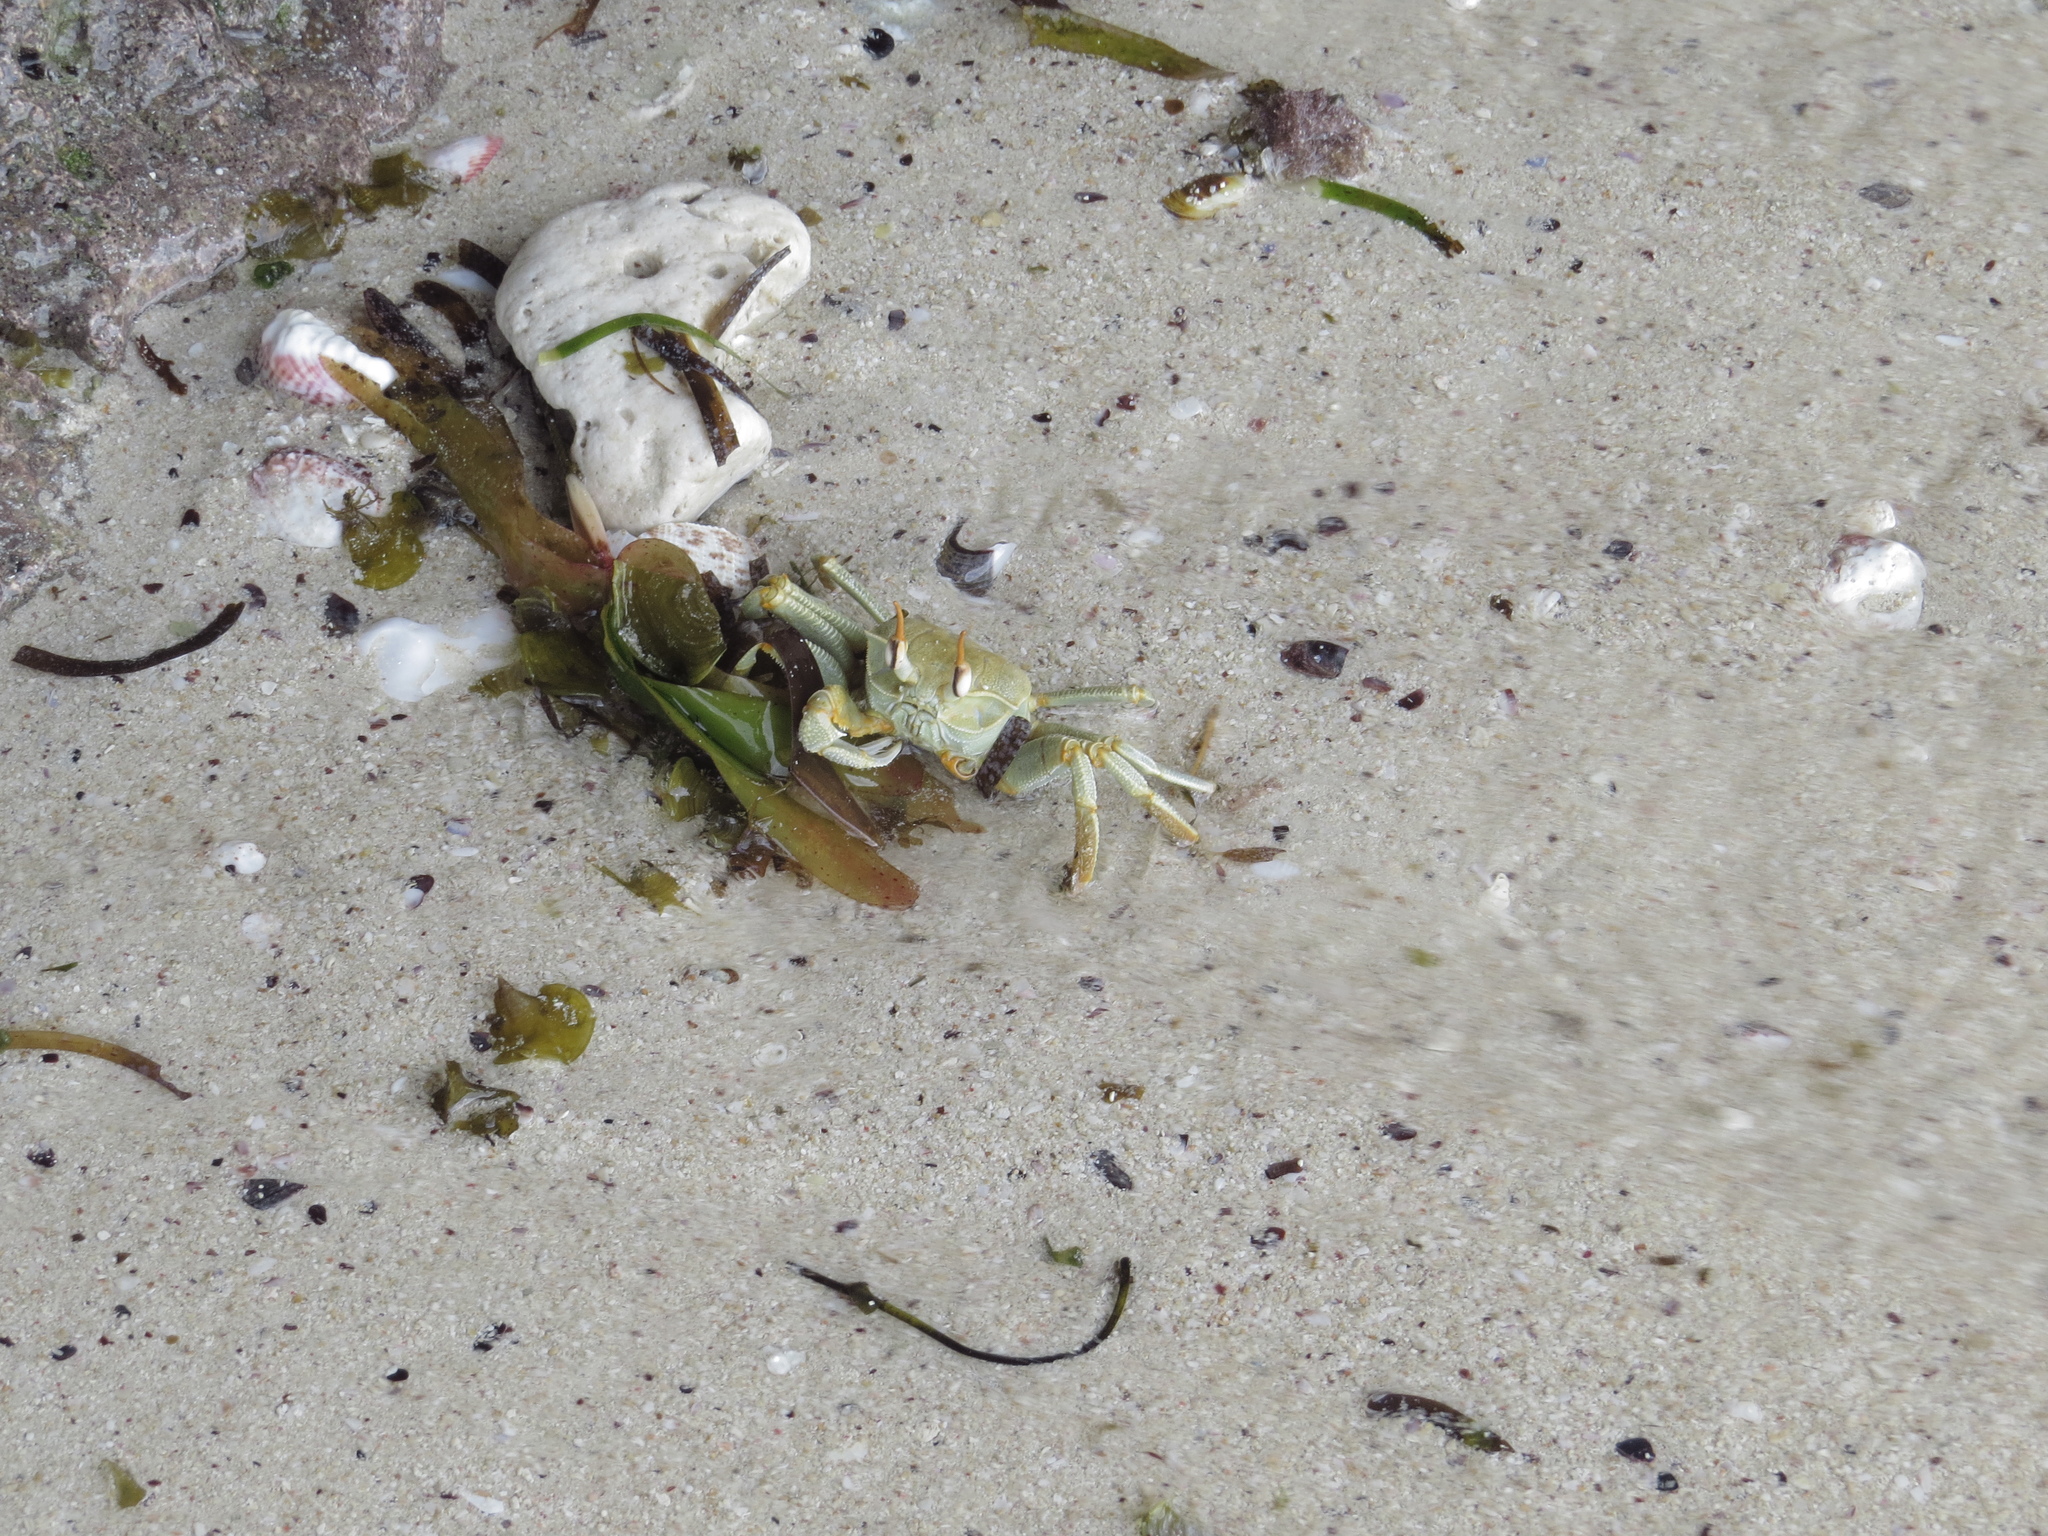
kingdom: Animalia
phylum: Arthropoda
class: Malacostraca
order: Decapoda
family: Ocypodidae
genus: Ocypode
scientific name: Ocypode ceratophthalmus
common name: Indo-pacific ghost crab
